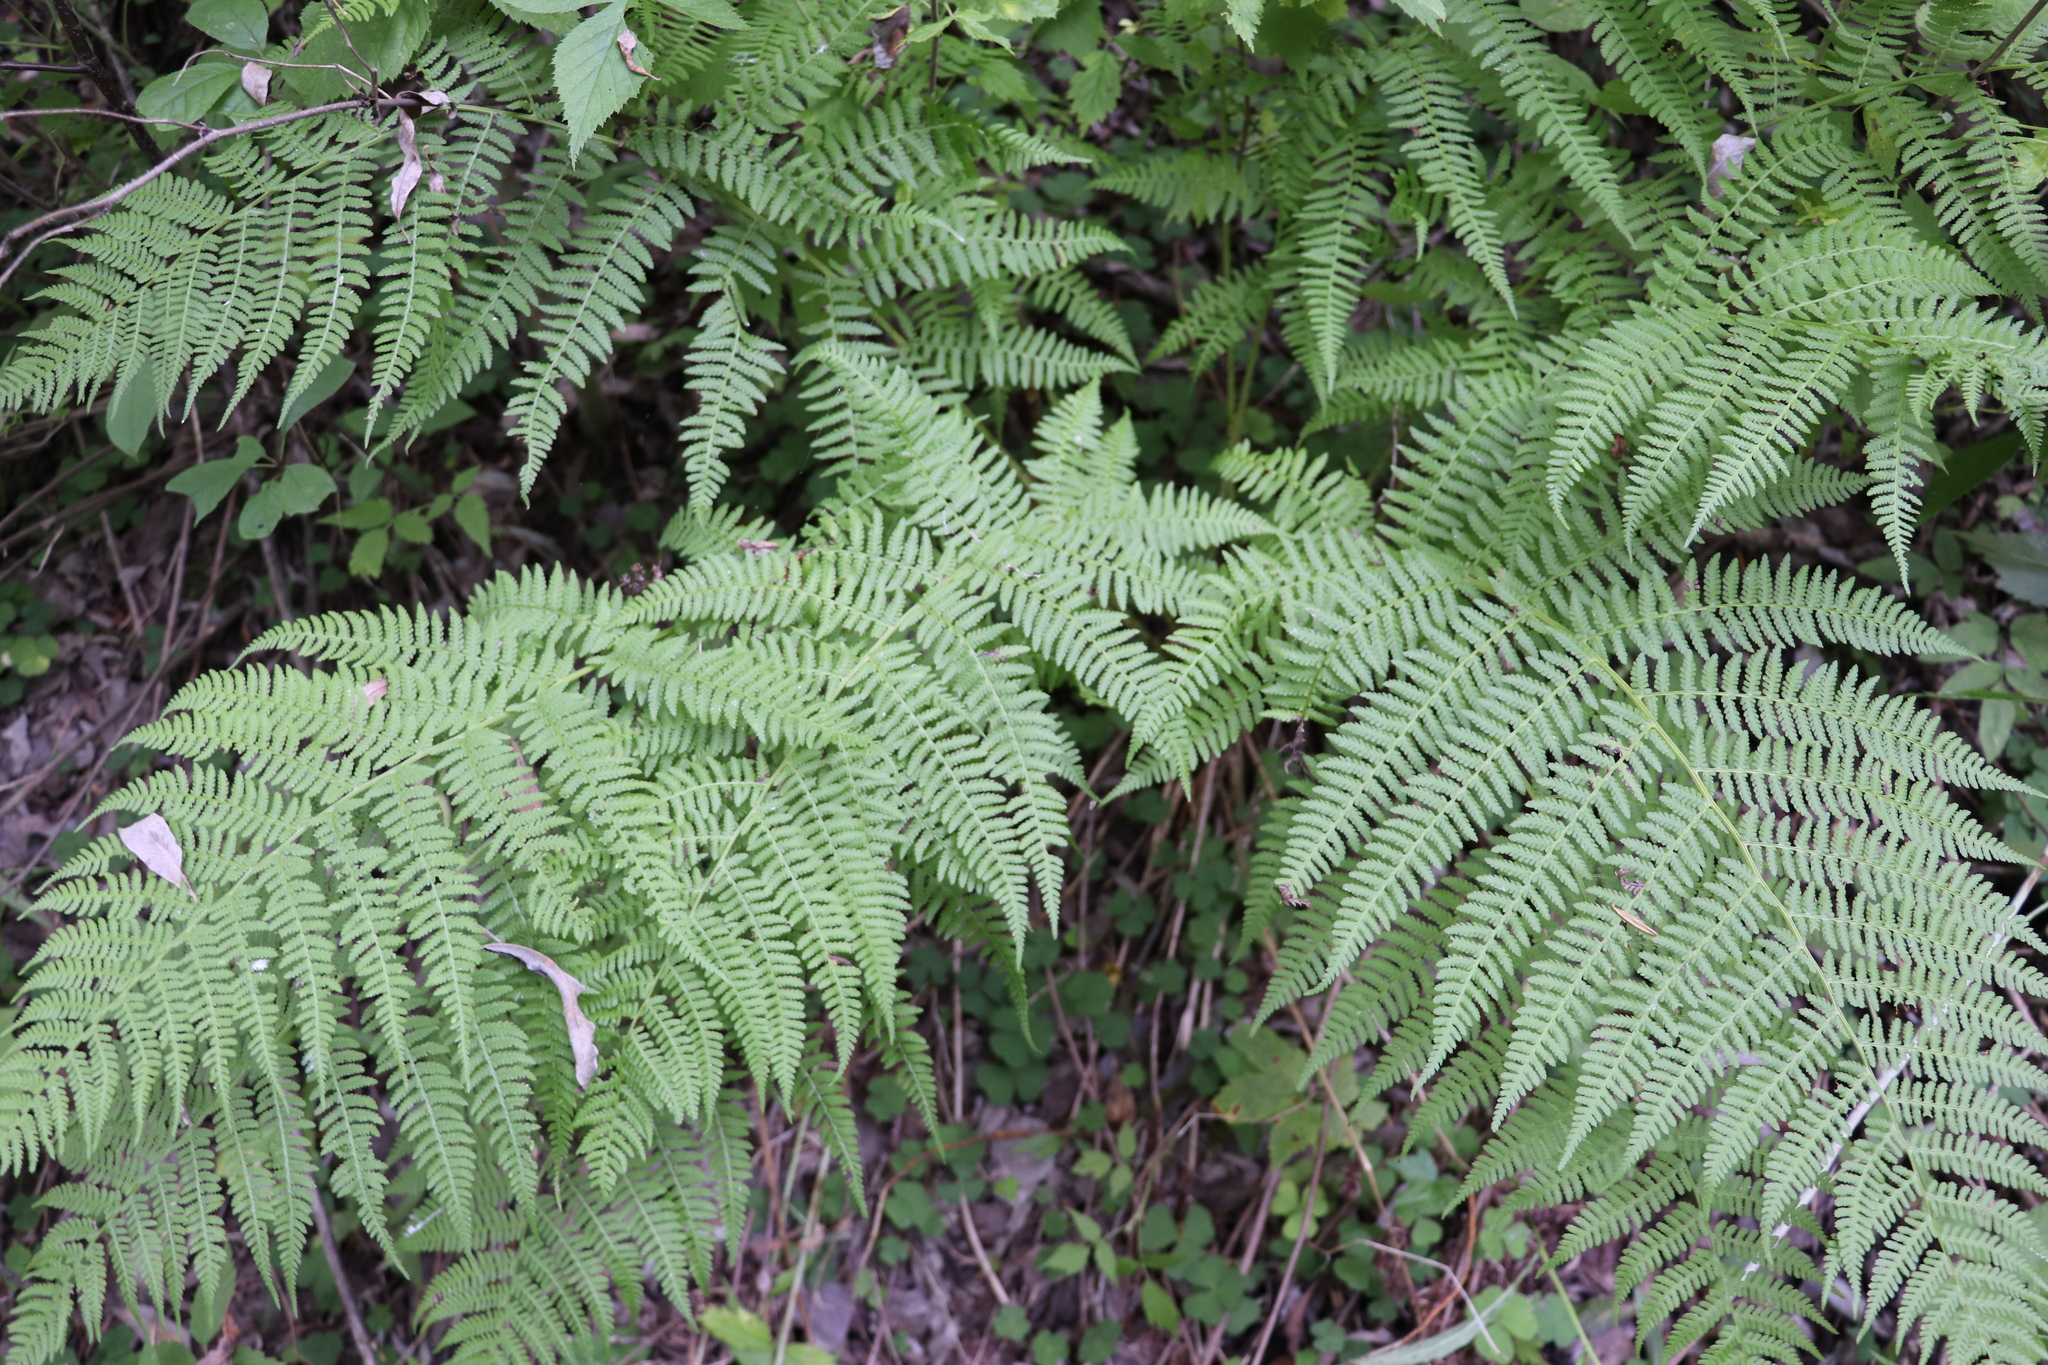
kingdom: Plantae
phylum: Tracheophyta
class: Polypodiopsida
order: Polypodiales
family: Athyriaceae
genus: Athyrium
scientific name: Athyrium filix-femina
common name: Lady fern
